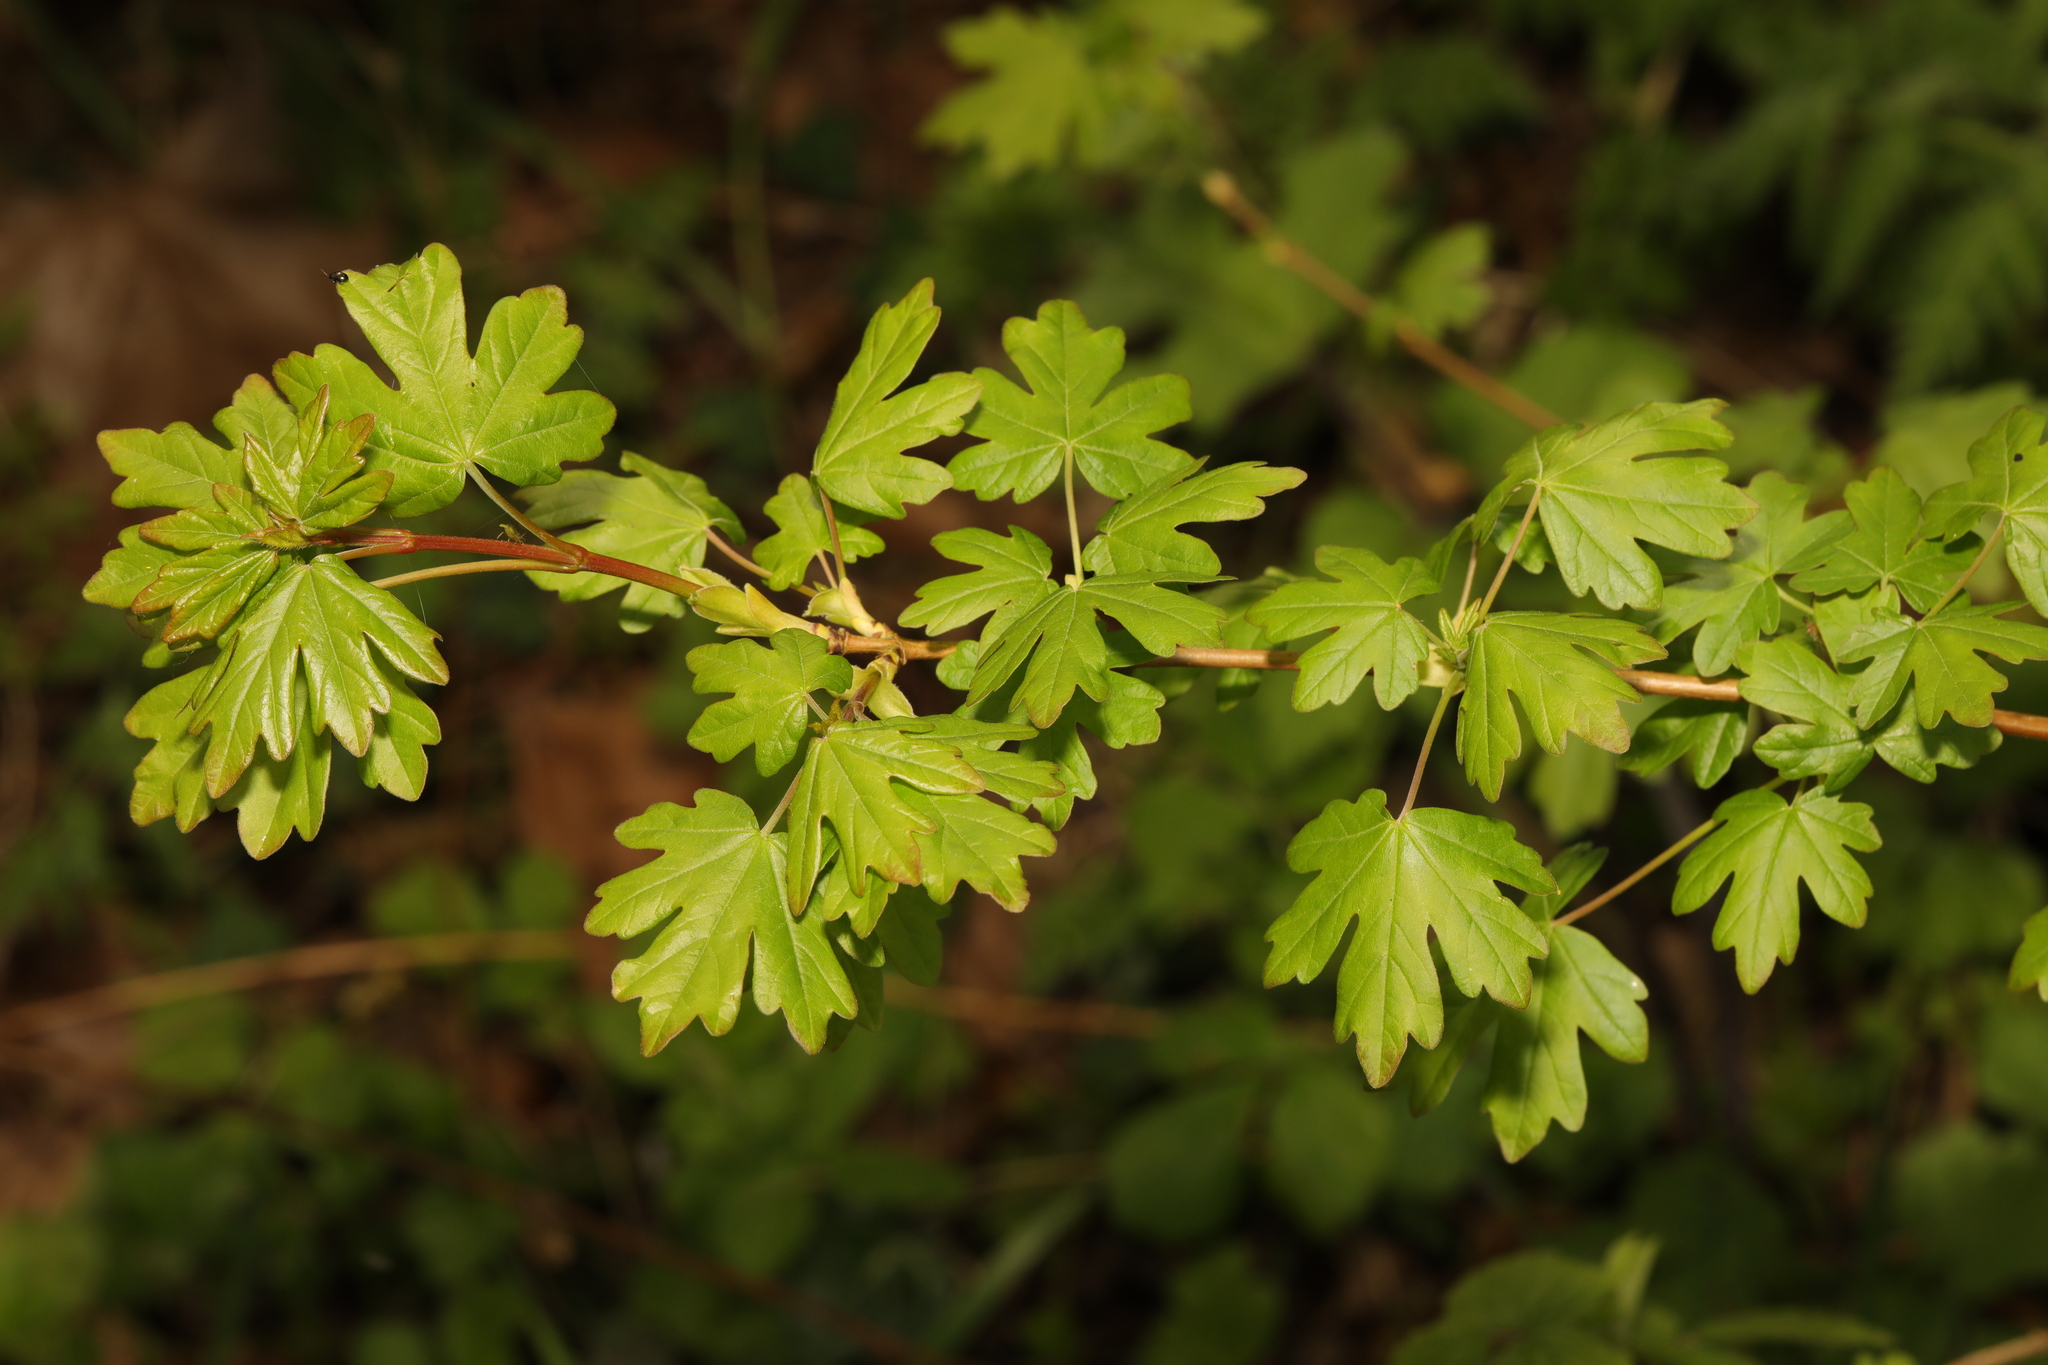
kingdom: Plantae
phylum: Tracheophyta
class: Magnoliopsida
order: Sapindales
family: Sapindaceae
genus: Acer
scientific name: Acer campestre
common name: Field maple
